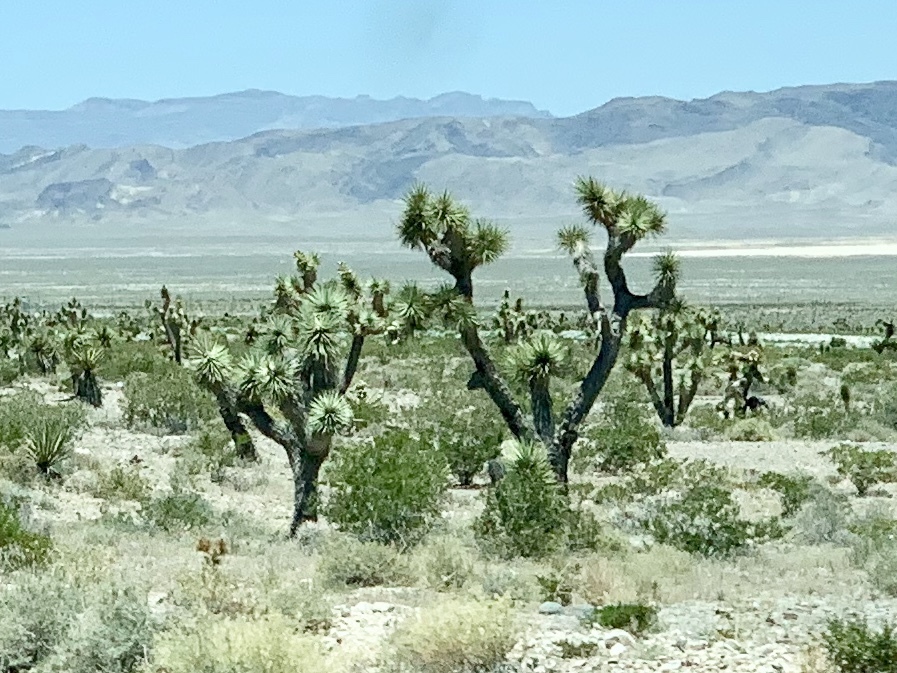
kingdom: Plantae
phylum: Tracheophyta
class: Liliopsida
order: Asparagales
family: Asparagaceae
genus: Yucca
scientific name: Yucca brevifolia
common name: Joshua tree
